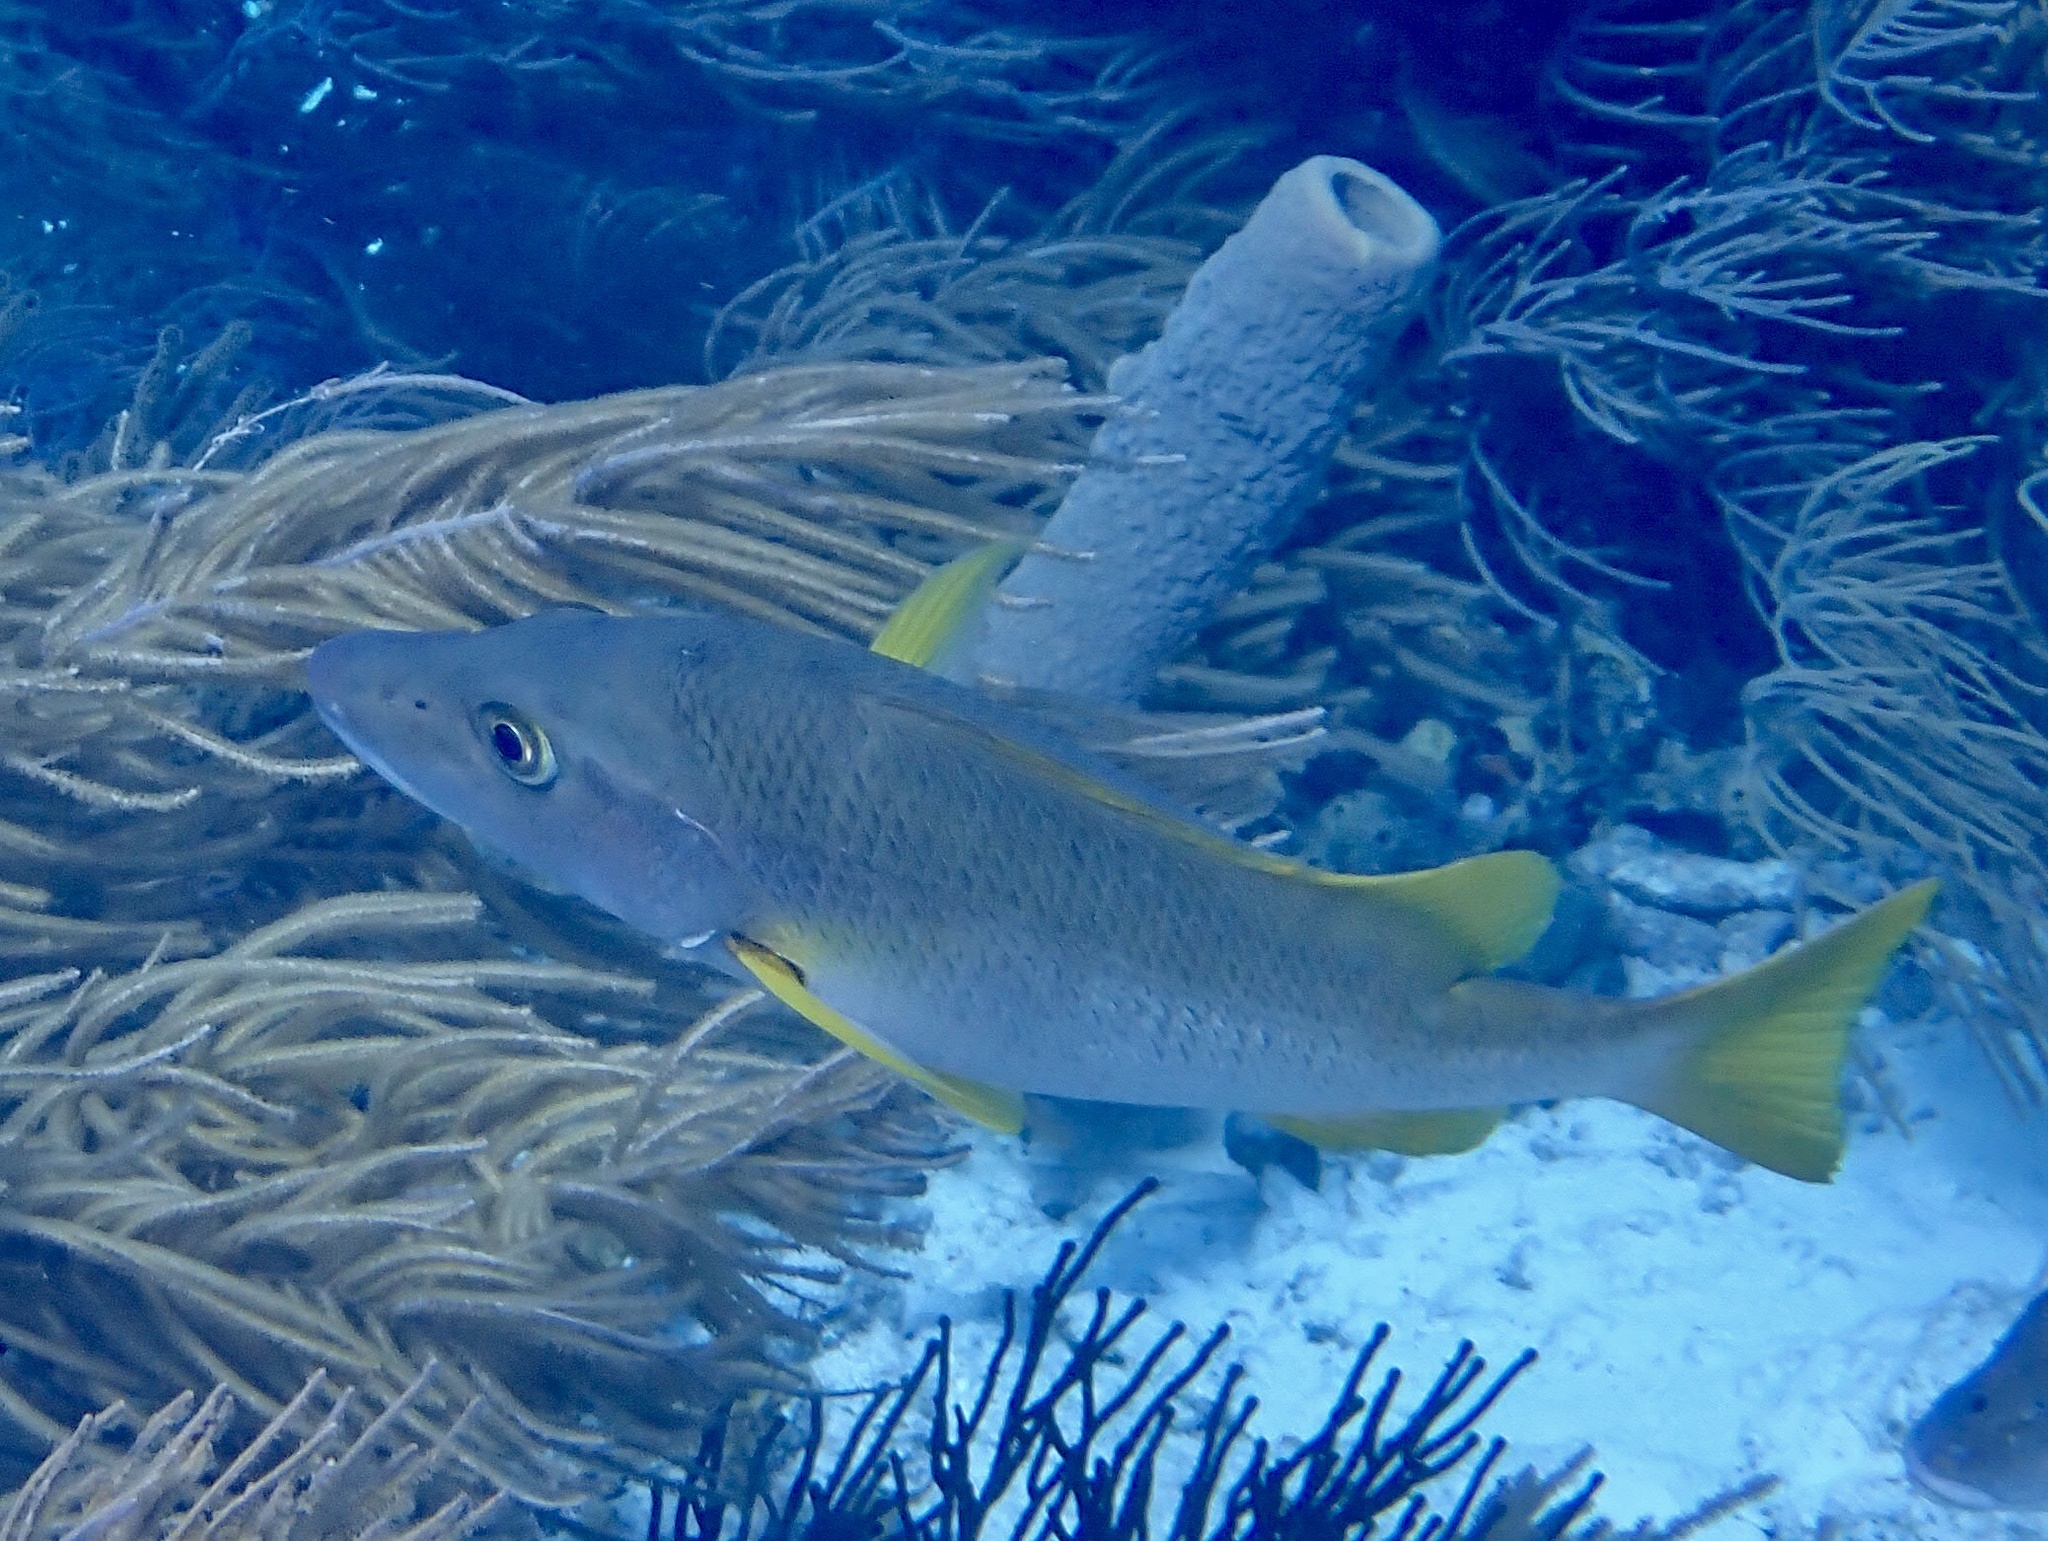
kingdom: Animalia
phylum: Chordata
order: Perciformes
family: Lutjanidae
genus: Lutjanus
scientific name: Lutjanus apodus
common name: Schoolmaster
